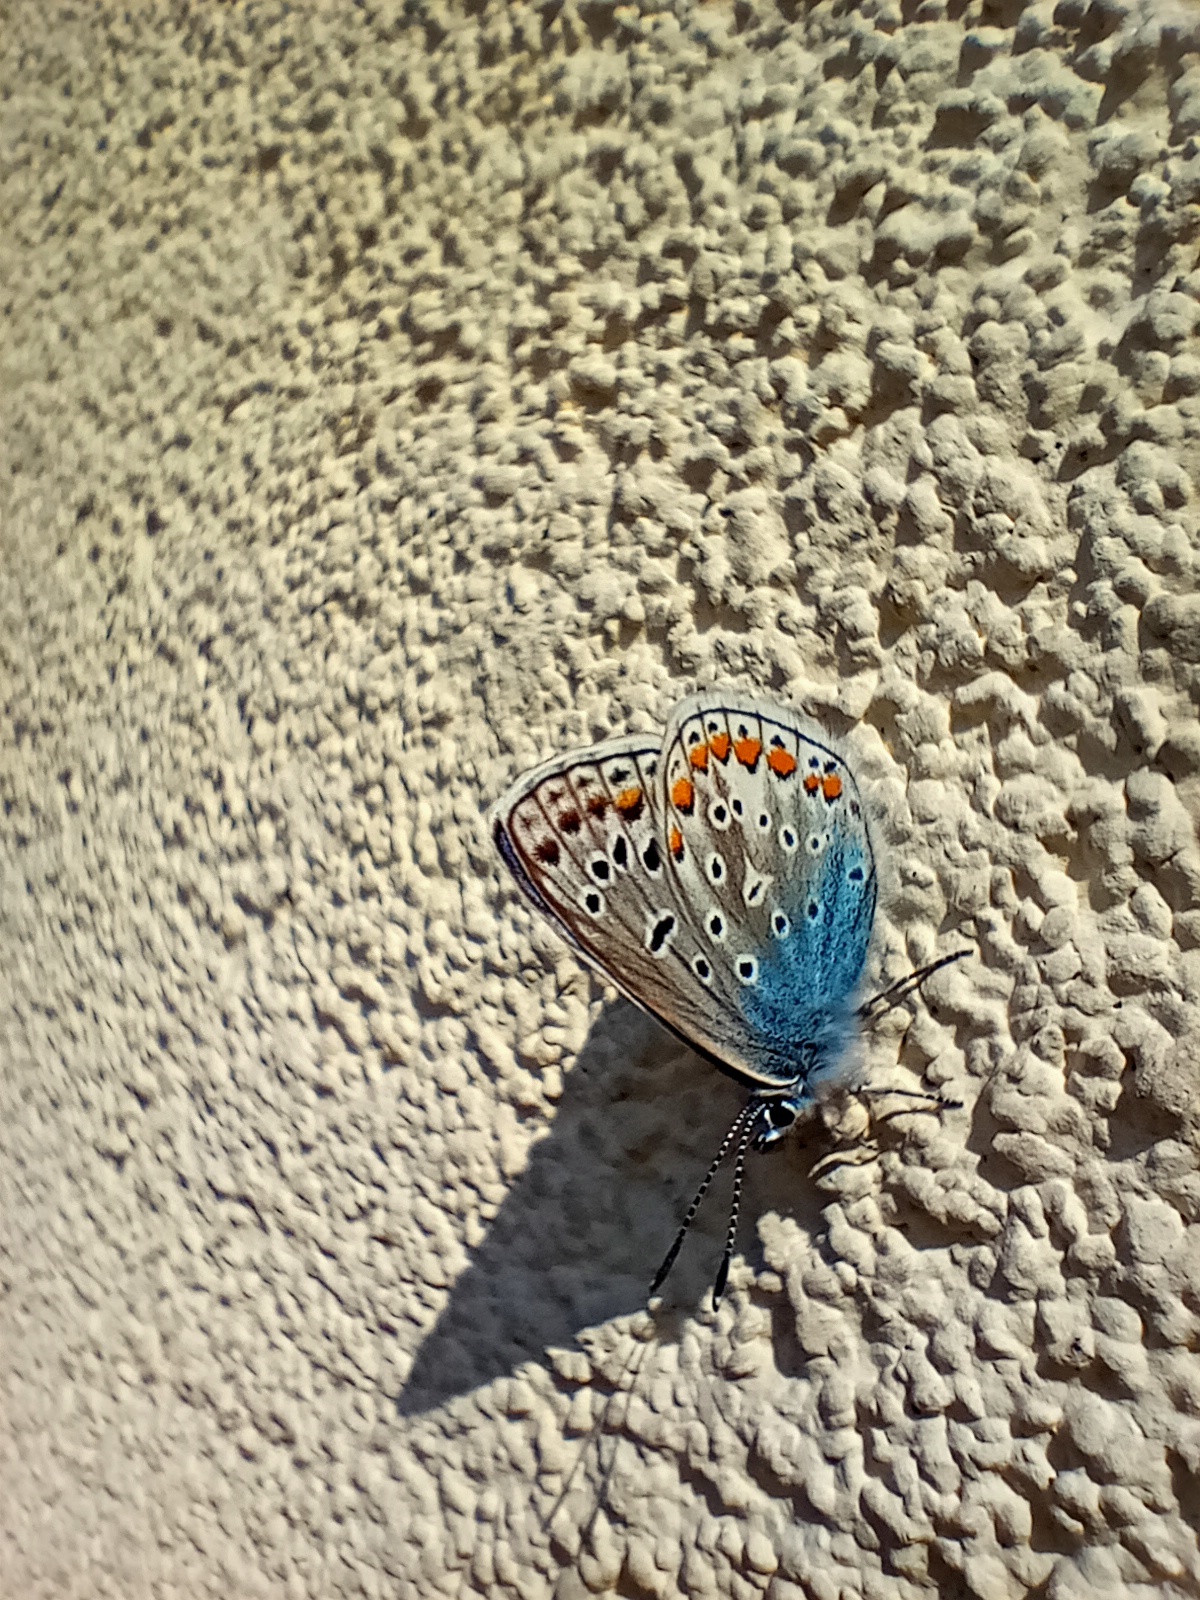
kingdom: Animalia
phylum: Arthropoda
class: Insecta
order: Lepidoptera
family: Lycaenidae
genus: Polyommatus
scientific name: Polyommatus icarus
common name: Common blue
